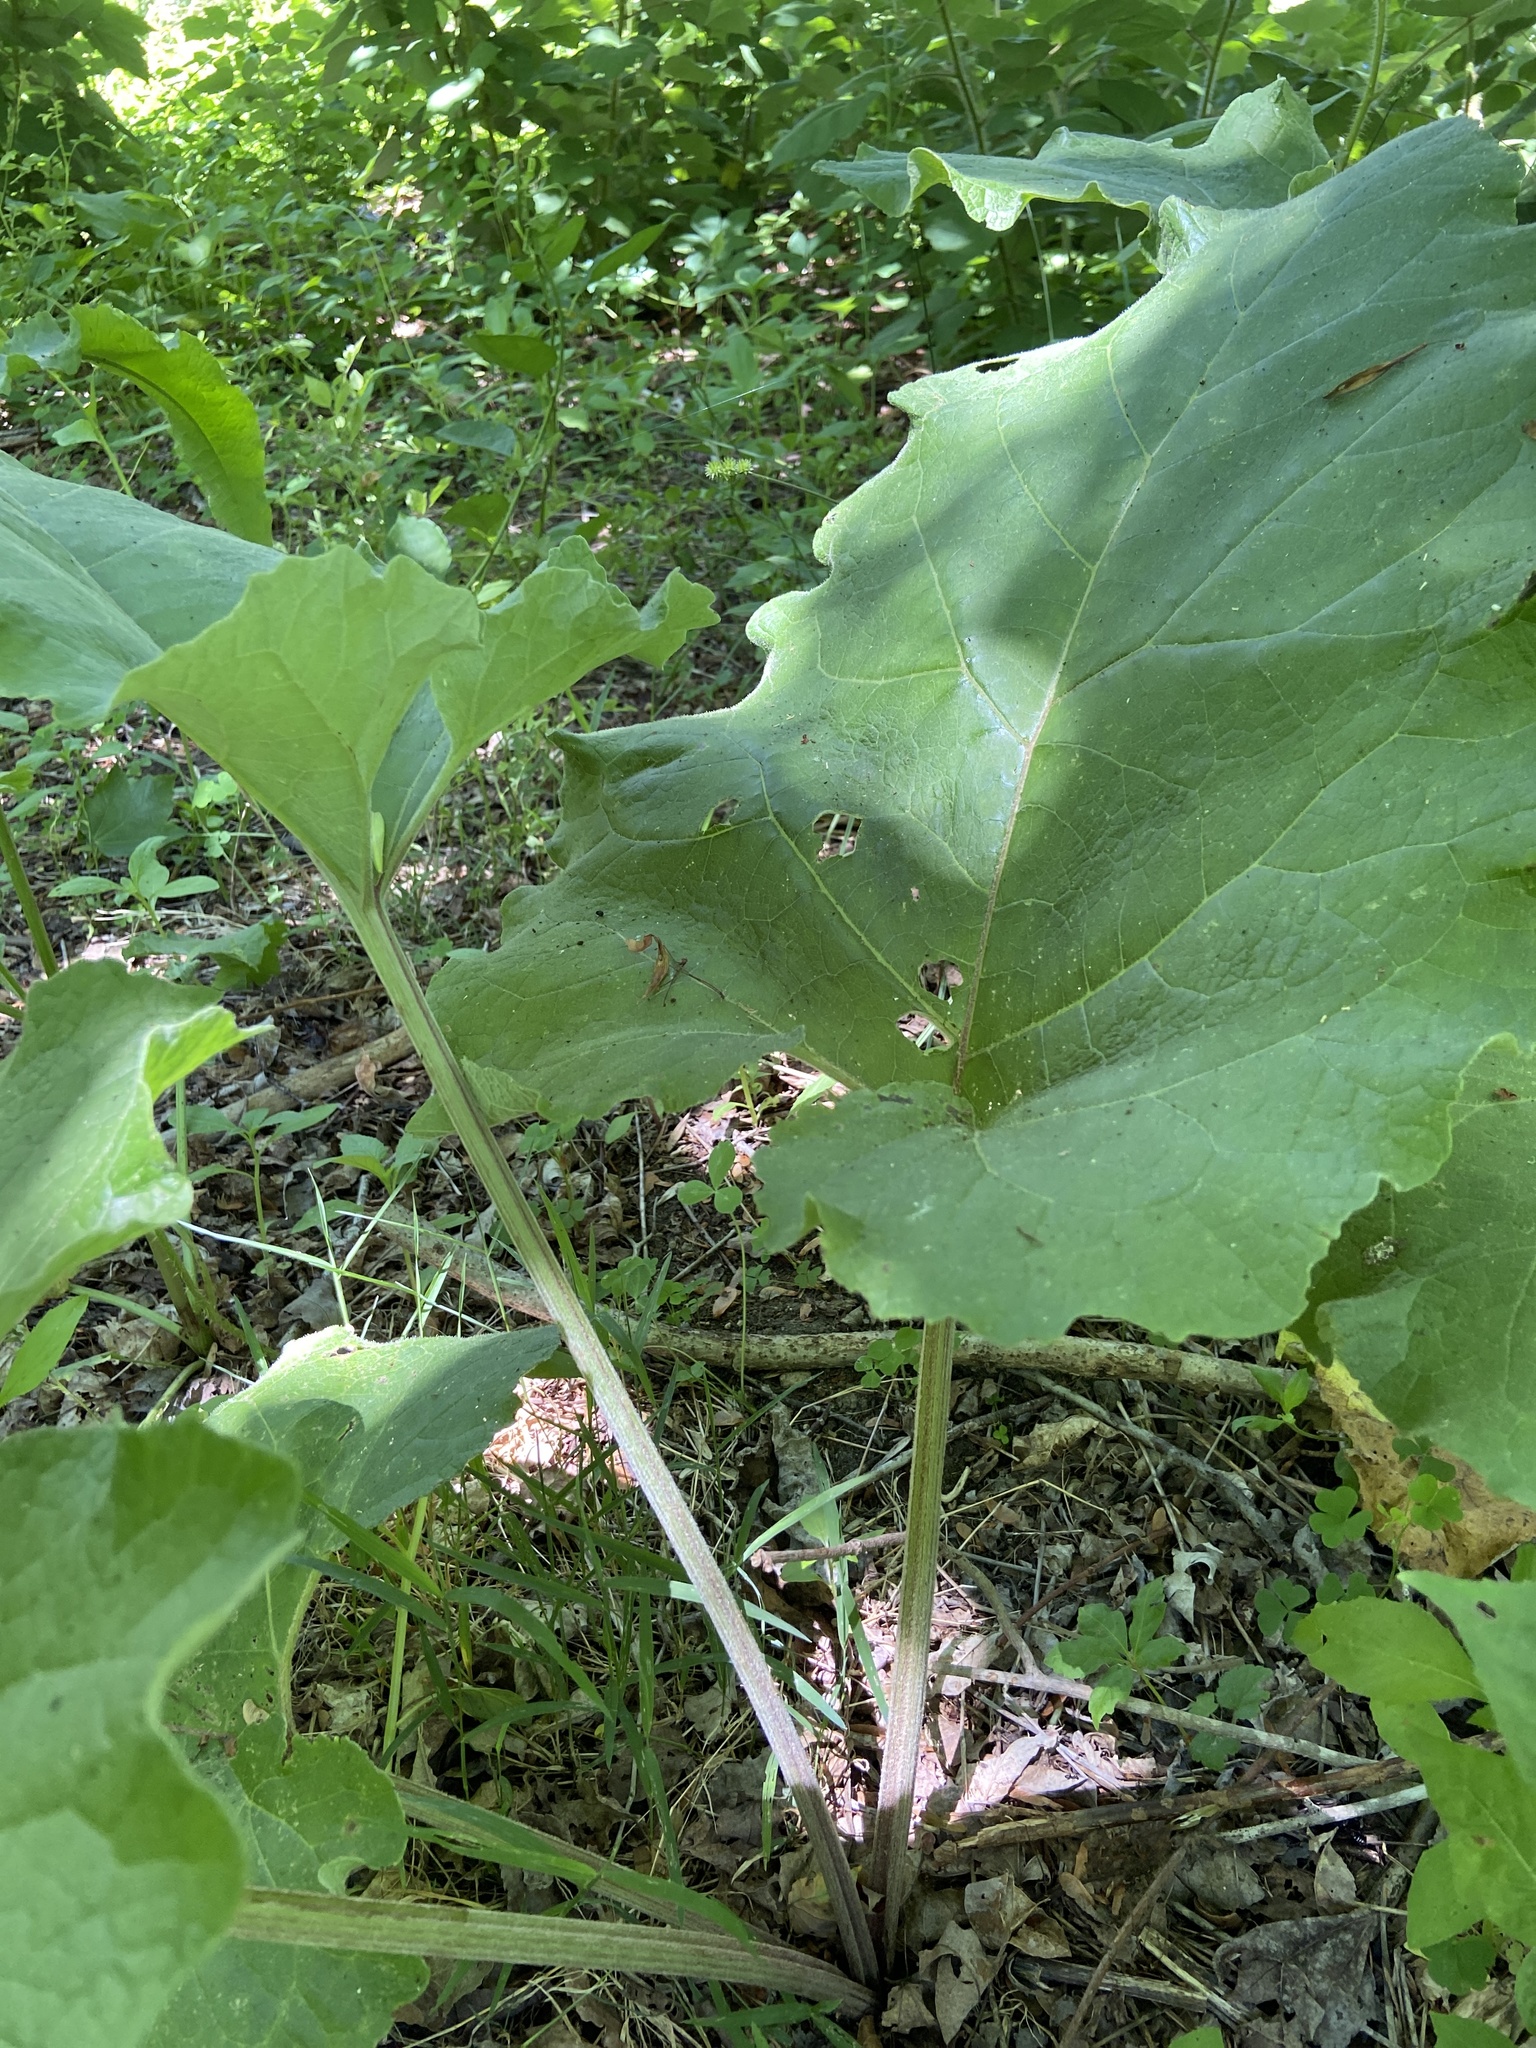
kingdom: Plantae
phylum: Tracheophyta
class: Magnoliopsida
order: Asterales
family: Asteraceae
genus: Arctium
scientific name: Arctium
